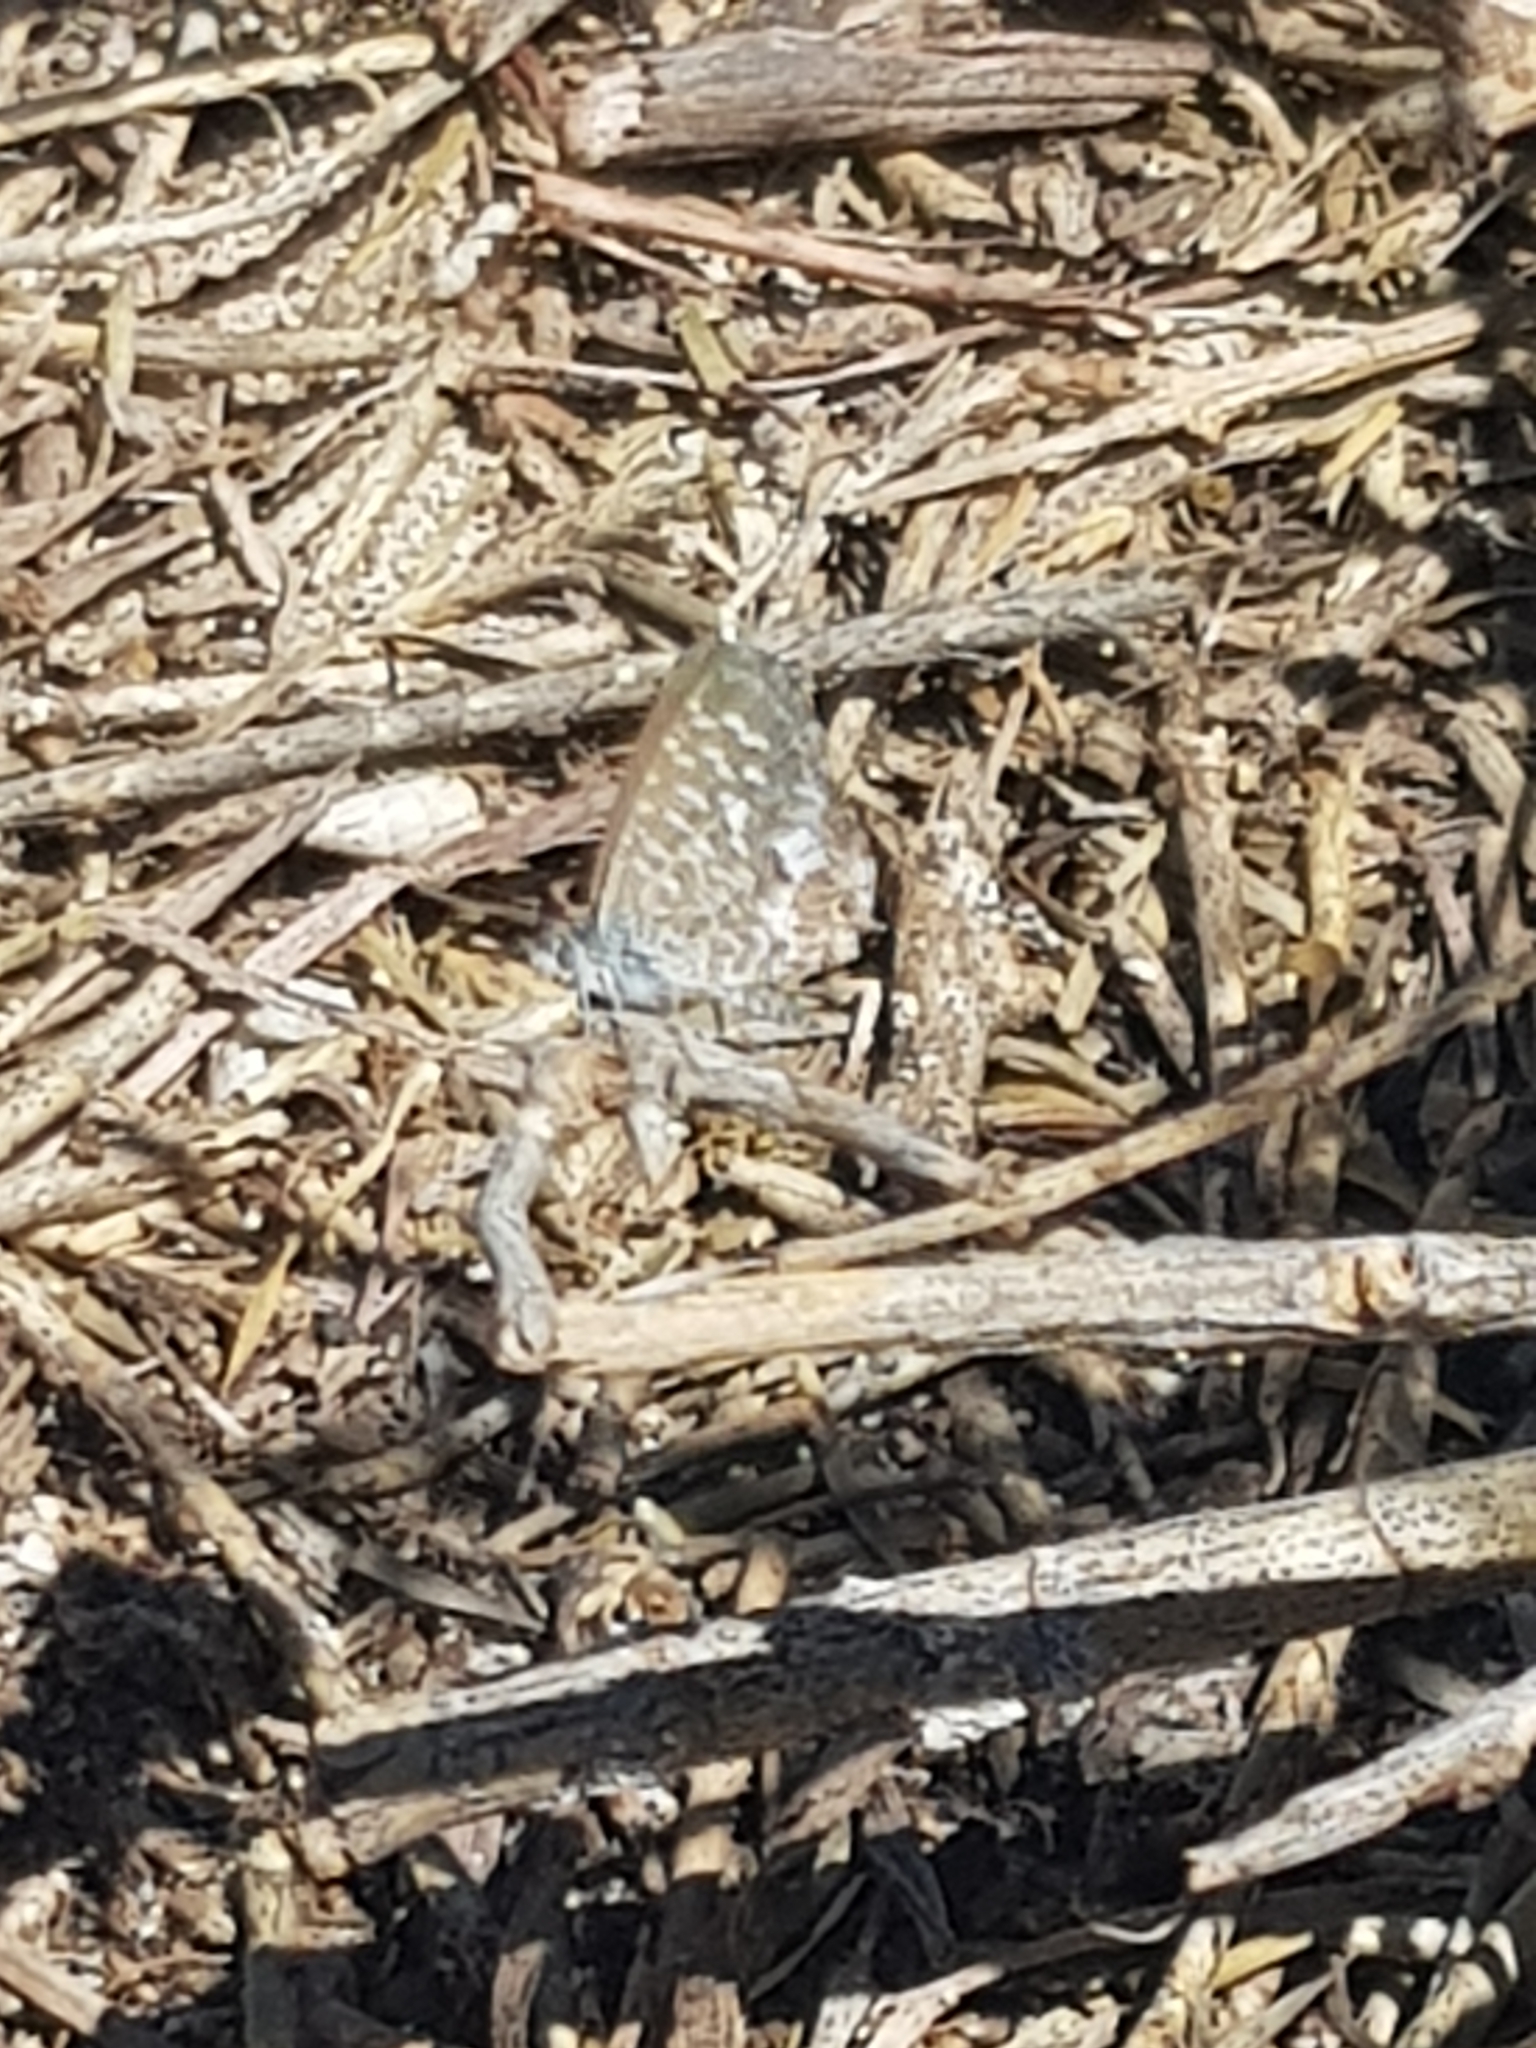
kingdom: Animalia
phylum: Arthropoda
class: Insecta
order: Lepidoptera
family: Lycaenidae
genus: Theclinesthes
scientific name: Theclinesthes serpentata
